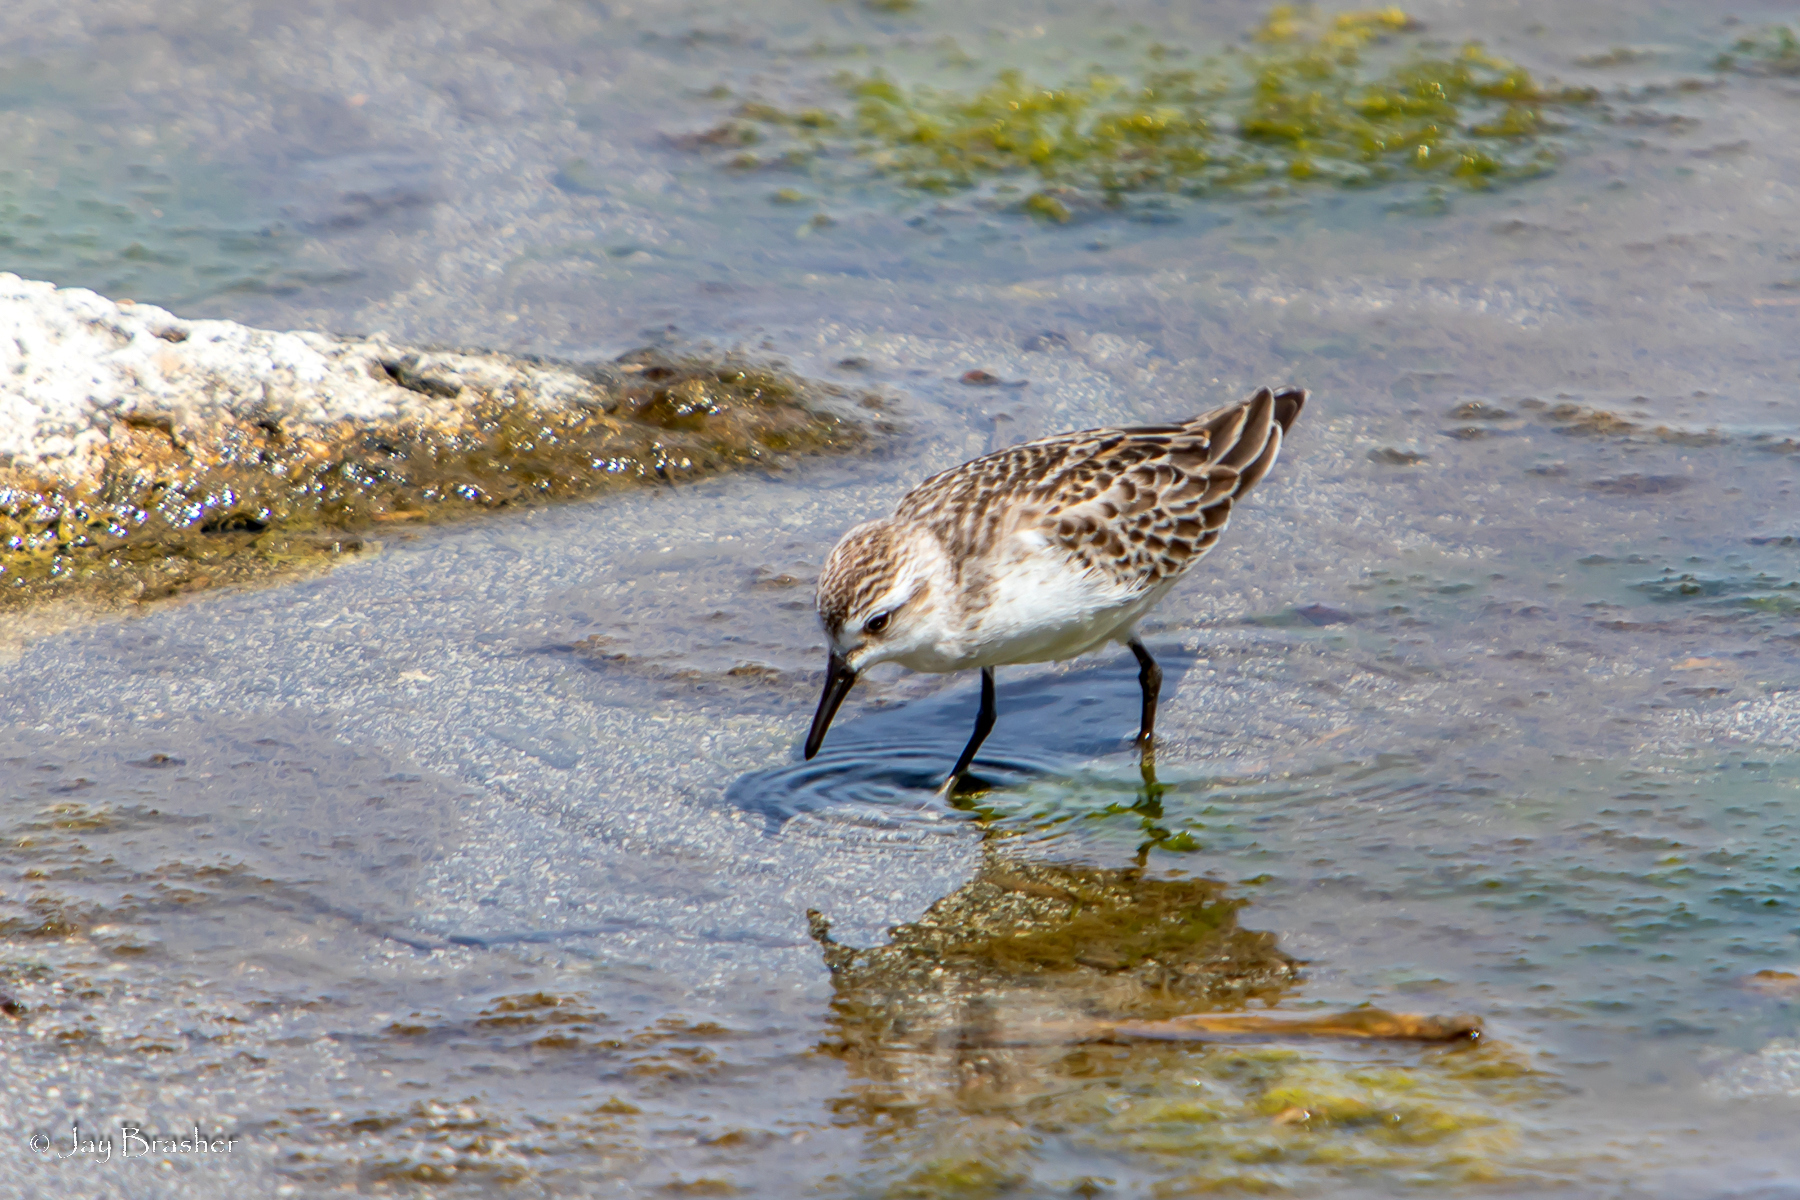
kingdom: Animalia
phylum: Chordata
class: Aves
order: Charadriiformes
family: Scolopacidae
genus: Calidris
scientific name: Calidris pusilla
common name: Semipalmated sandpiper
